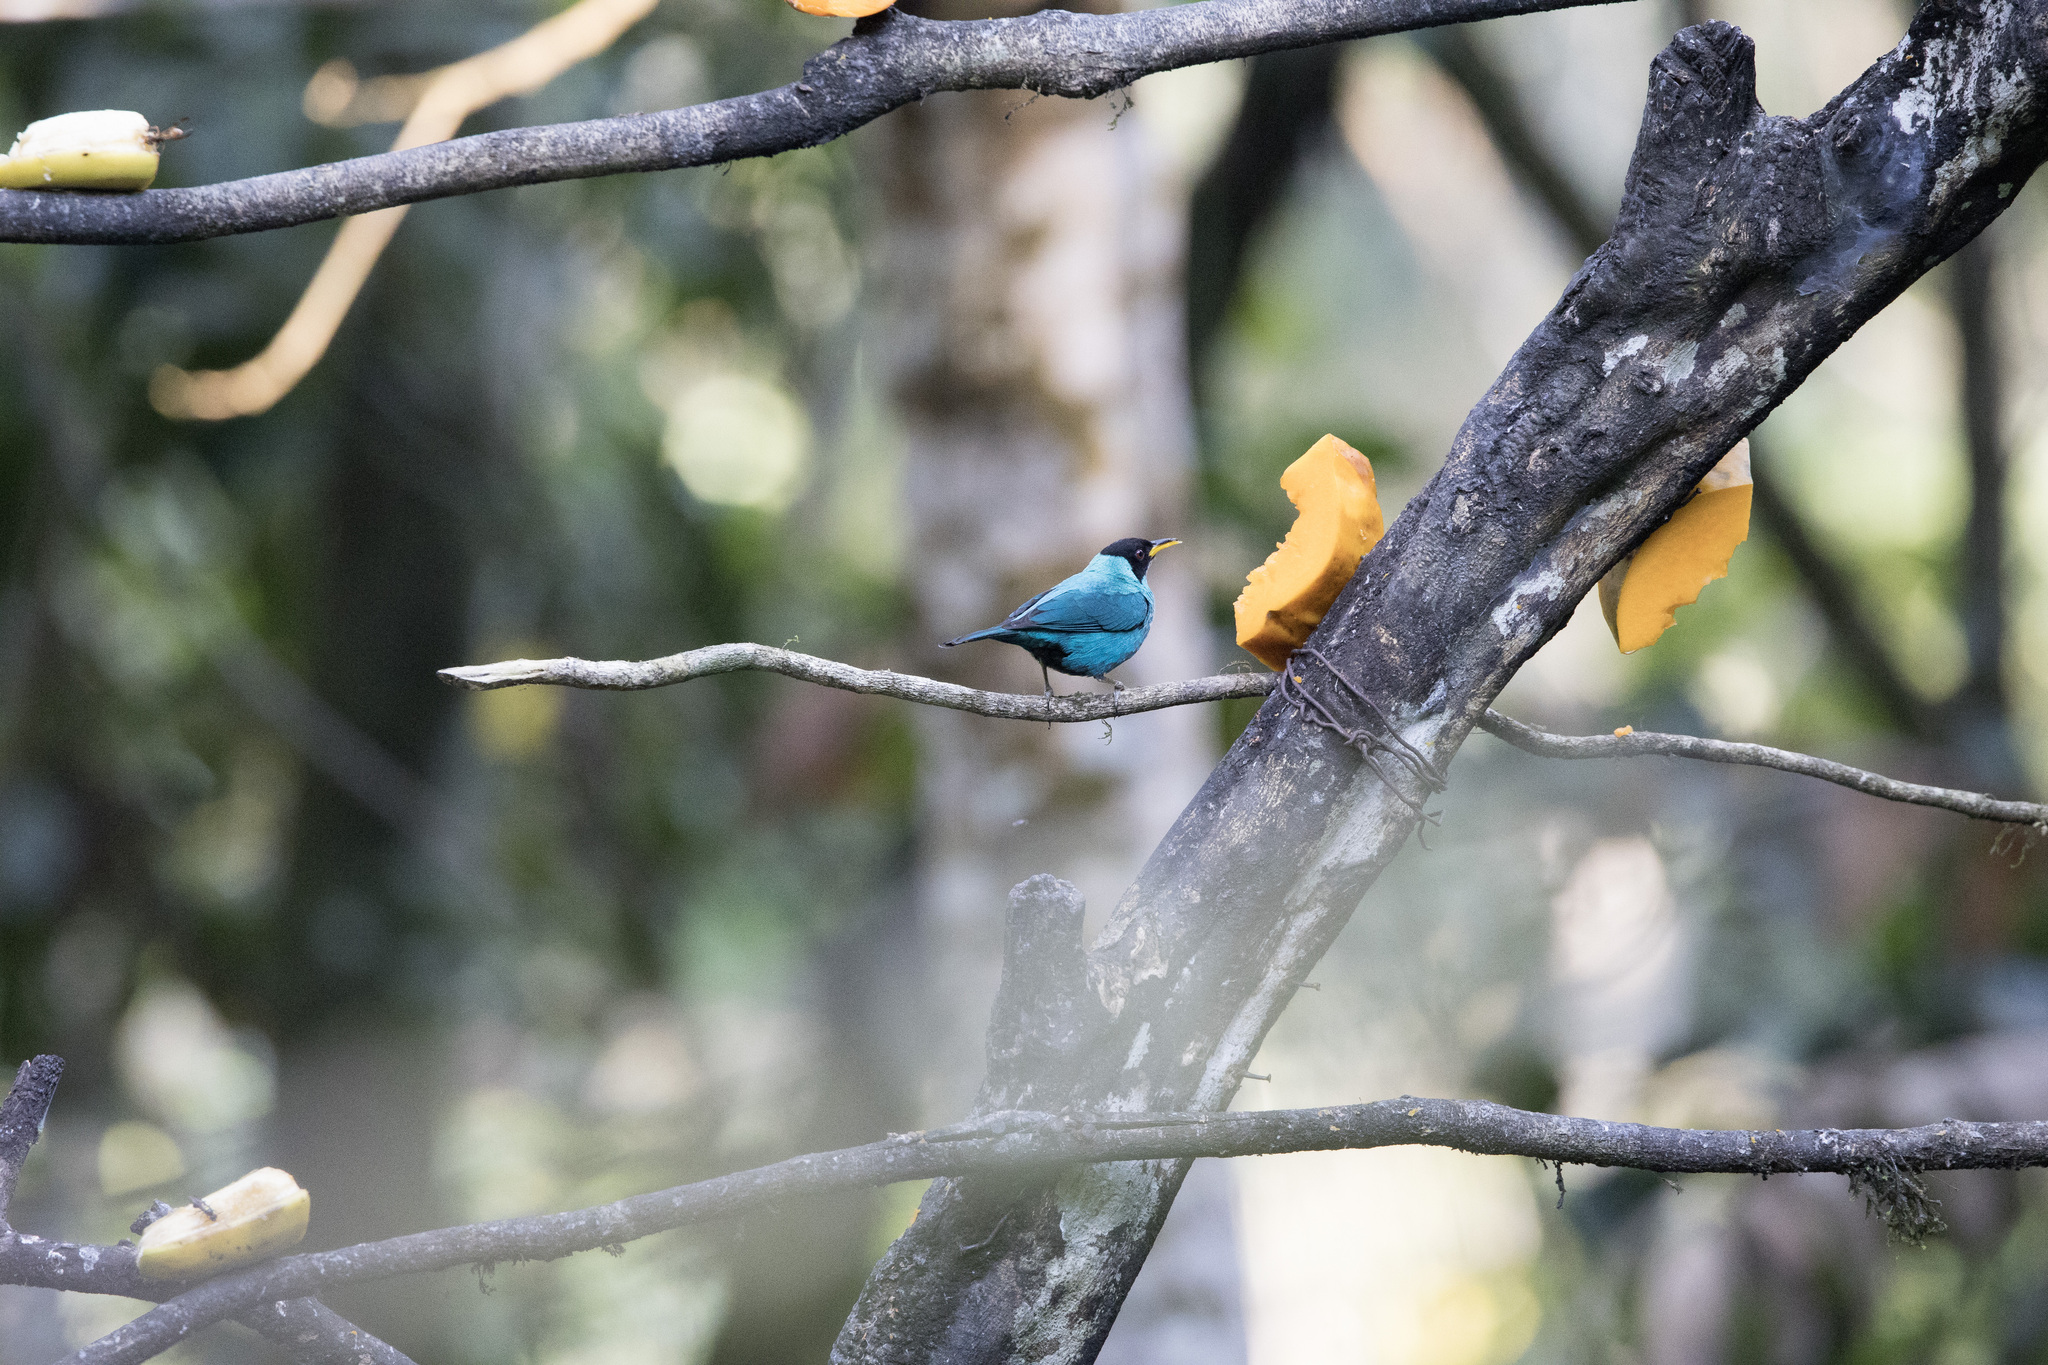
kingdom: Animalia
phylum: Chordata
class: Aves
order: Passeriformes
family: Thraupidae
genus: Chlorophanes
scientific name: Chlorophanes spiza
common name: Green honeycreeper
